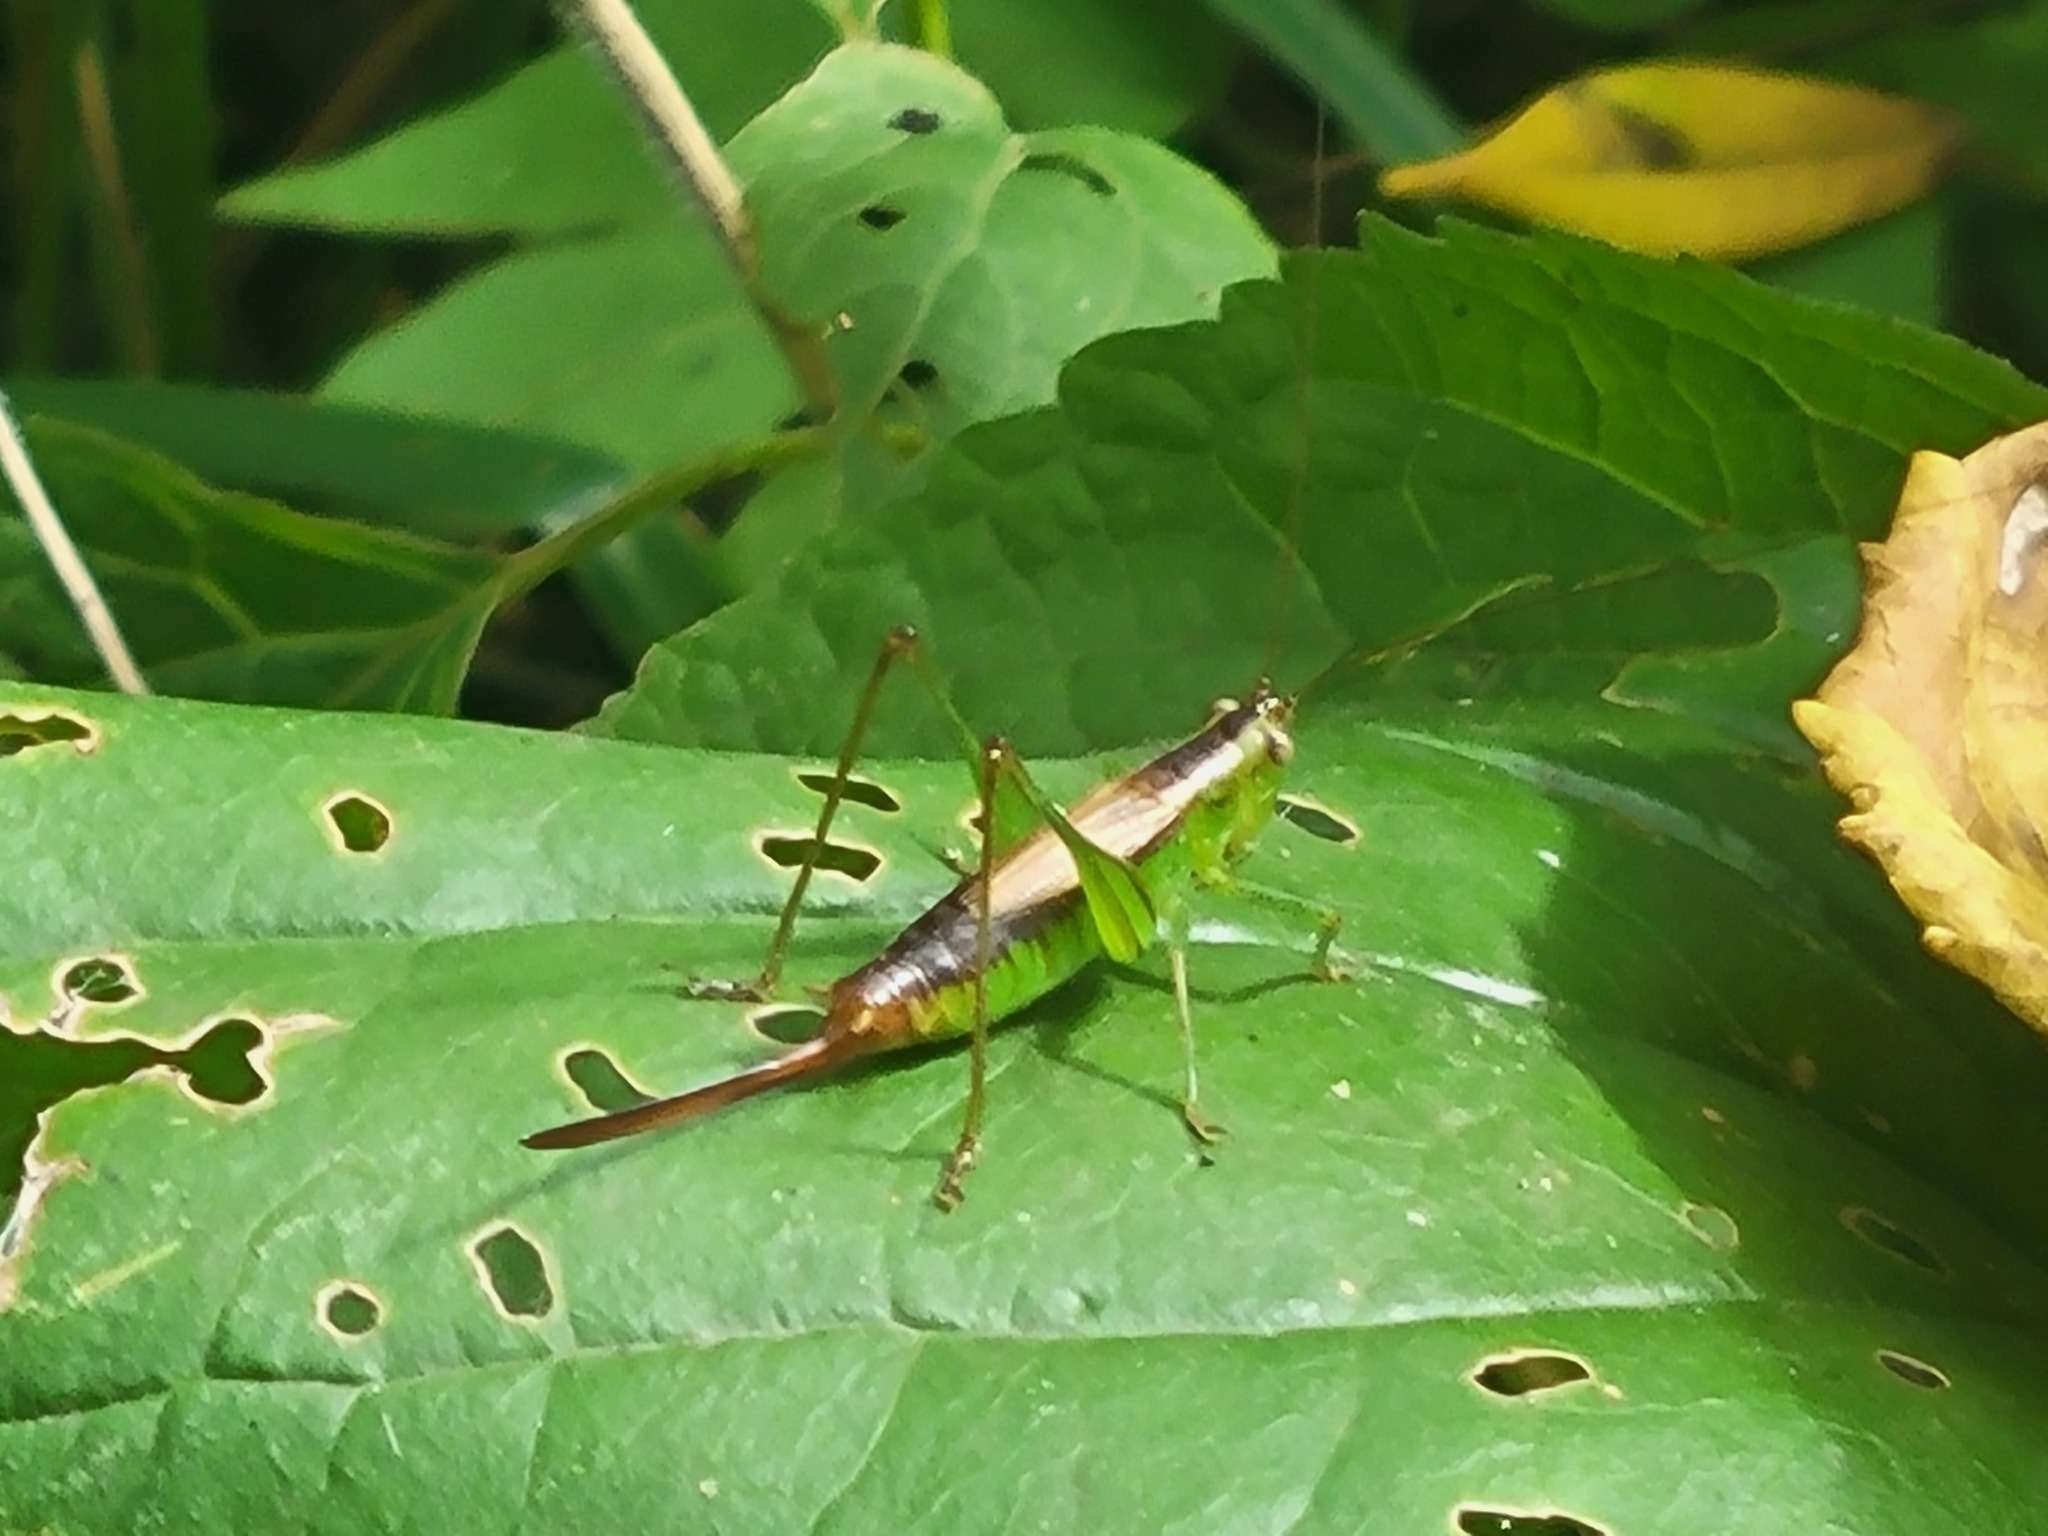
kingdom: Animalia
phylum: Arthropoda
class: Insecta
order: Orthoptera
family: Tettigoniidae
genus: Conocephalus
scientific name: Conocephalus brevipennis
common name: Short-winged meadow katydid
